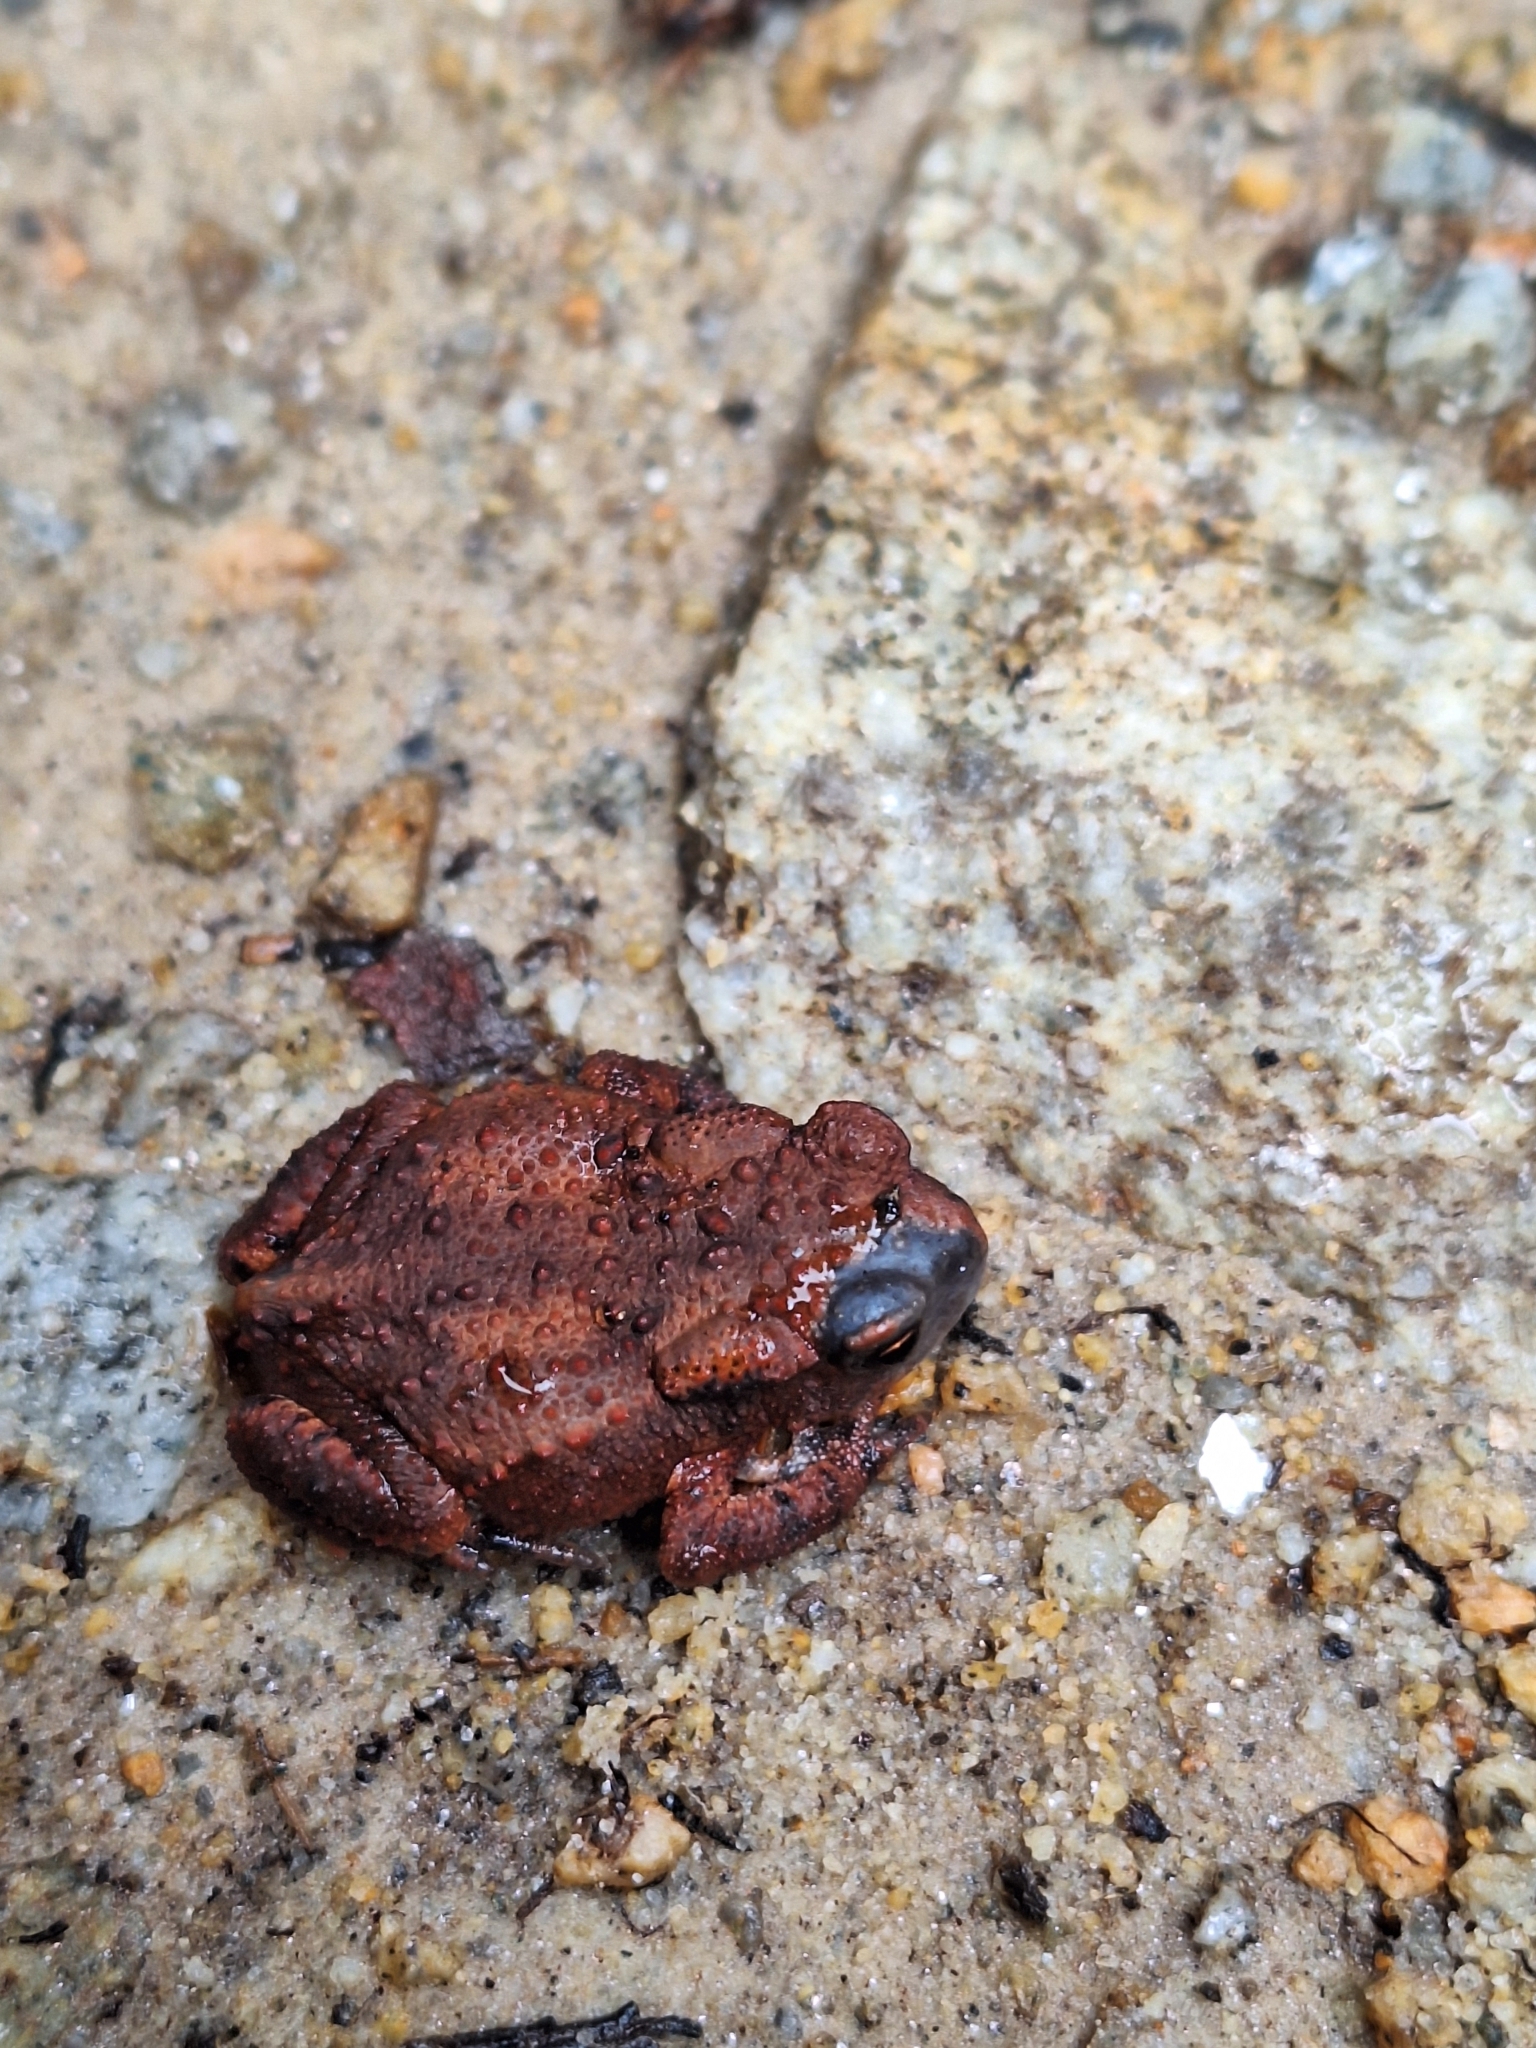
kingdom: Animalia
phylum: Chordata
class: Amphibia
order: Anura
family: Bufonidae
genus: Bufo
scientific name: Bufo bufo
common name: Common toad
